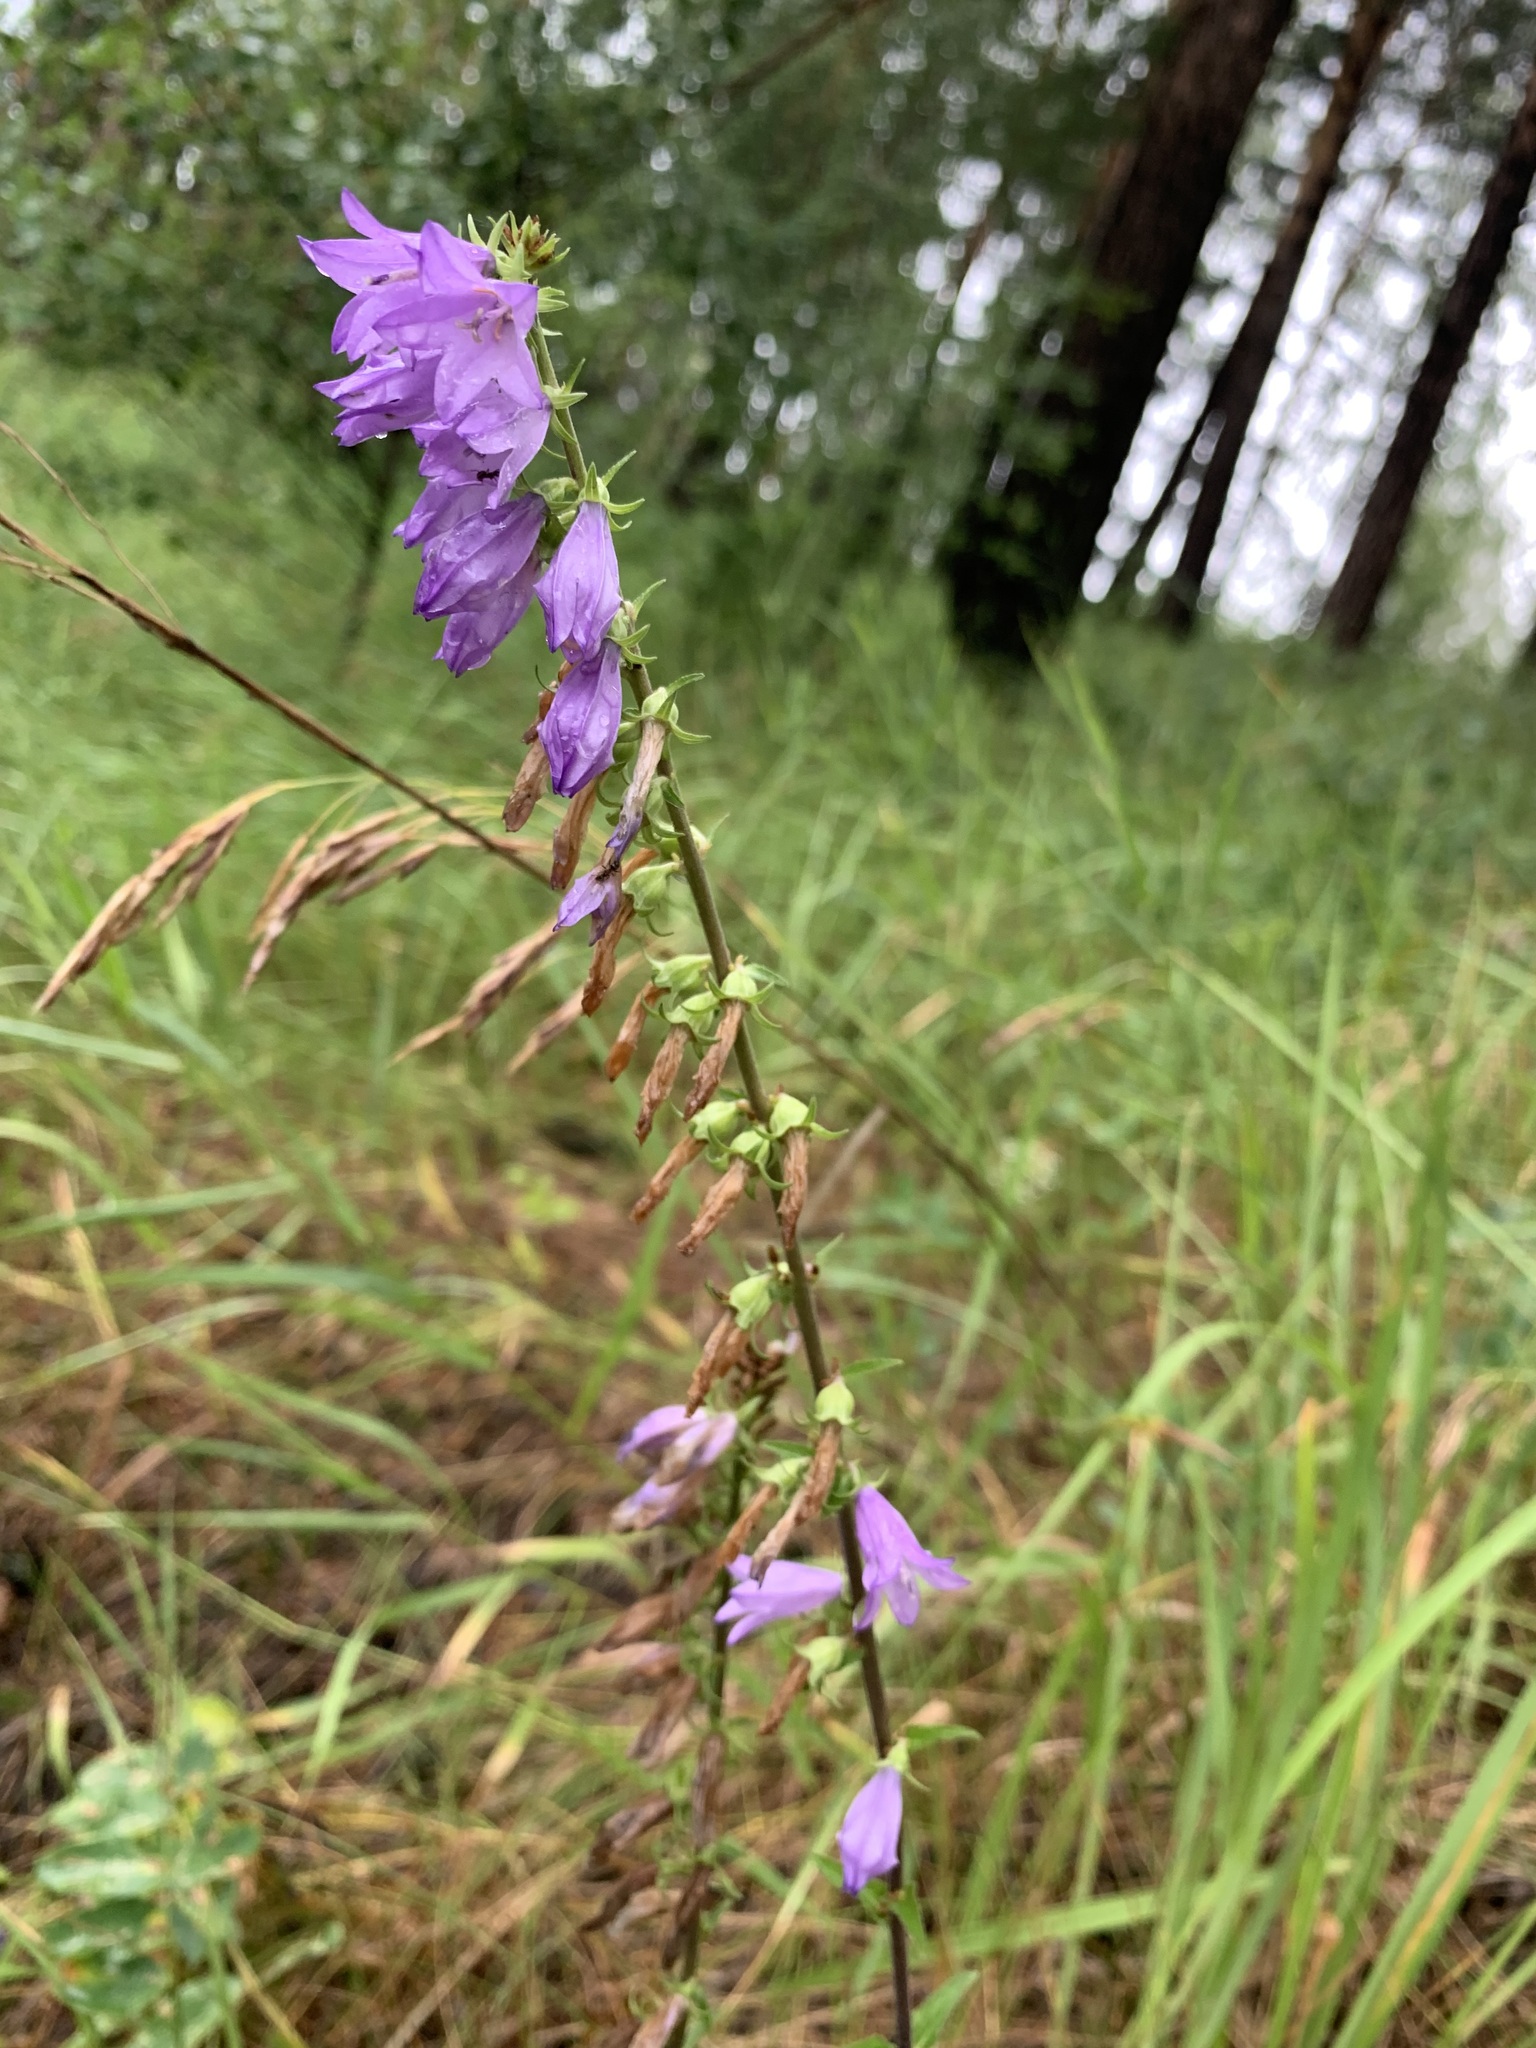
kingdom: Plantae
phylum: Tracheophyta
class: Magnoliopsida
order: Asterales
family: Campanulaceae
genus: Campanula
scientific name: Campanula bononiensis
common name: Pale bellflower
